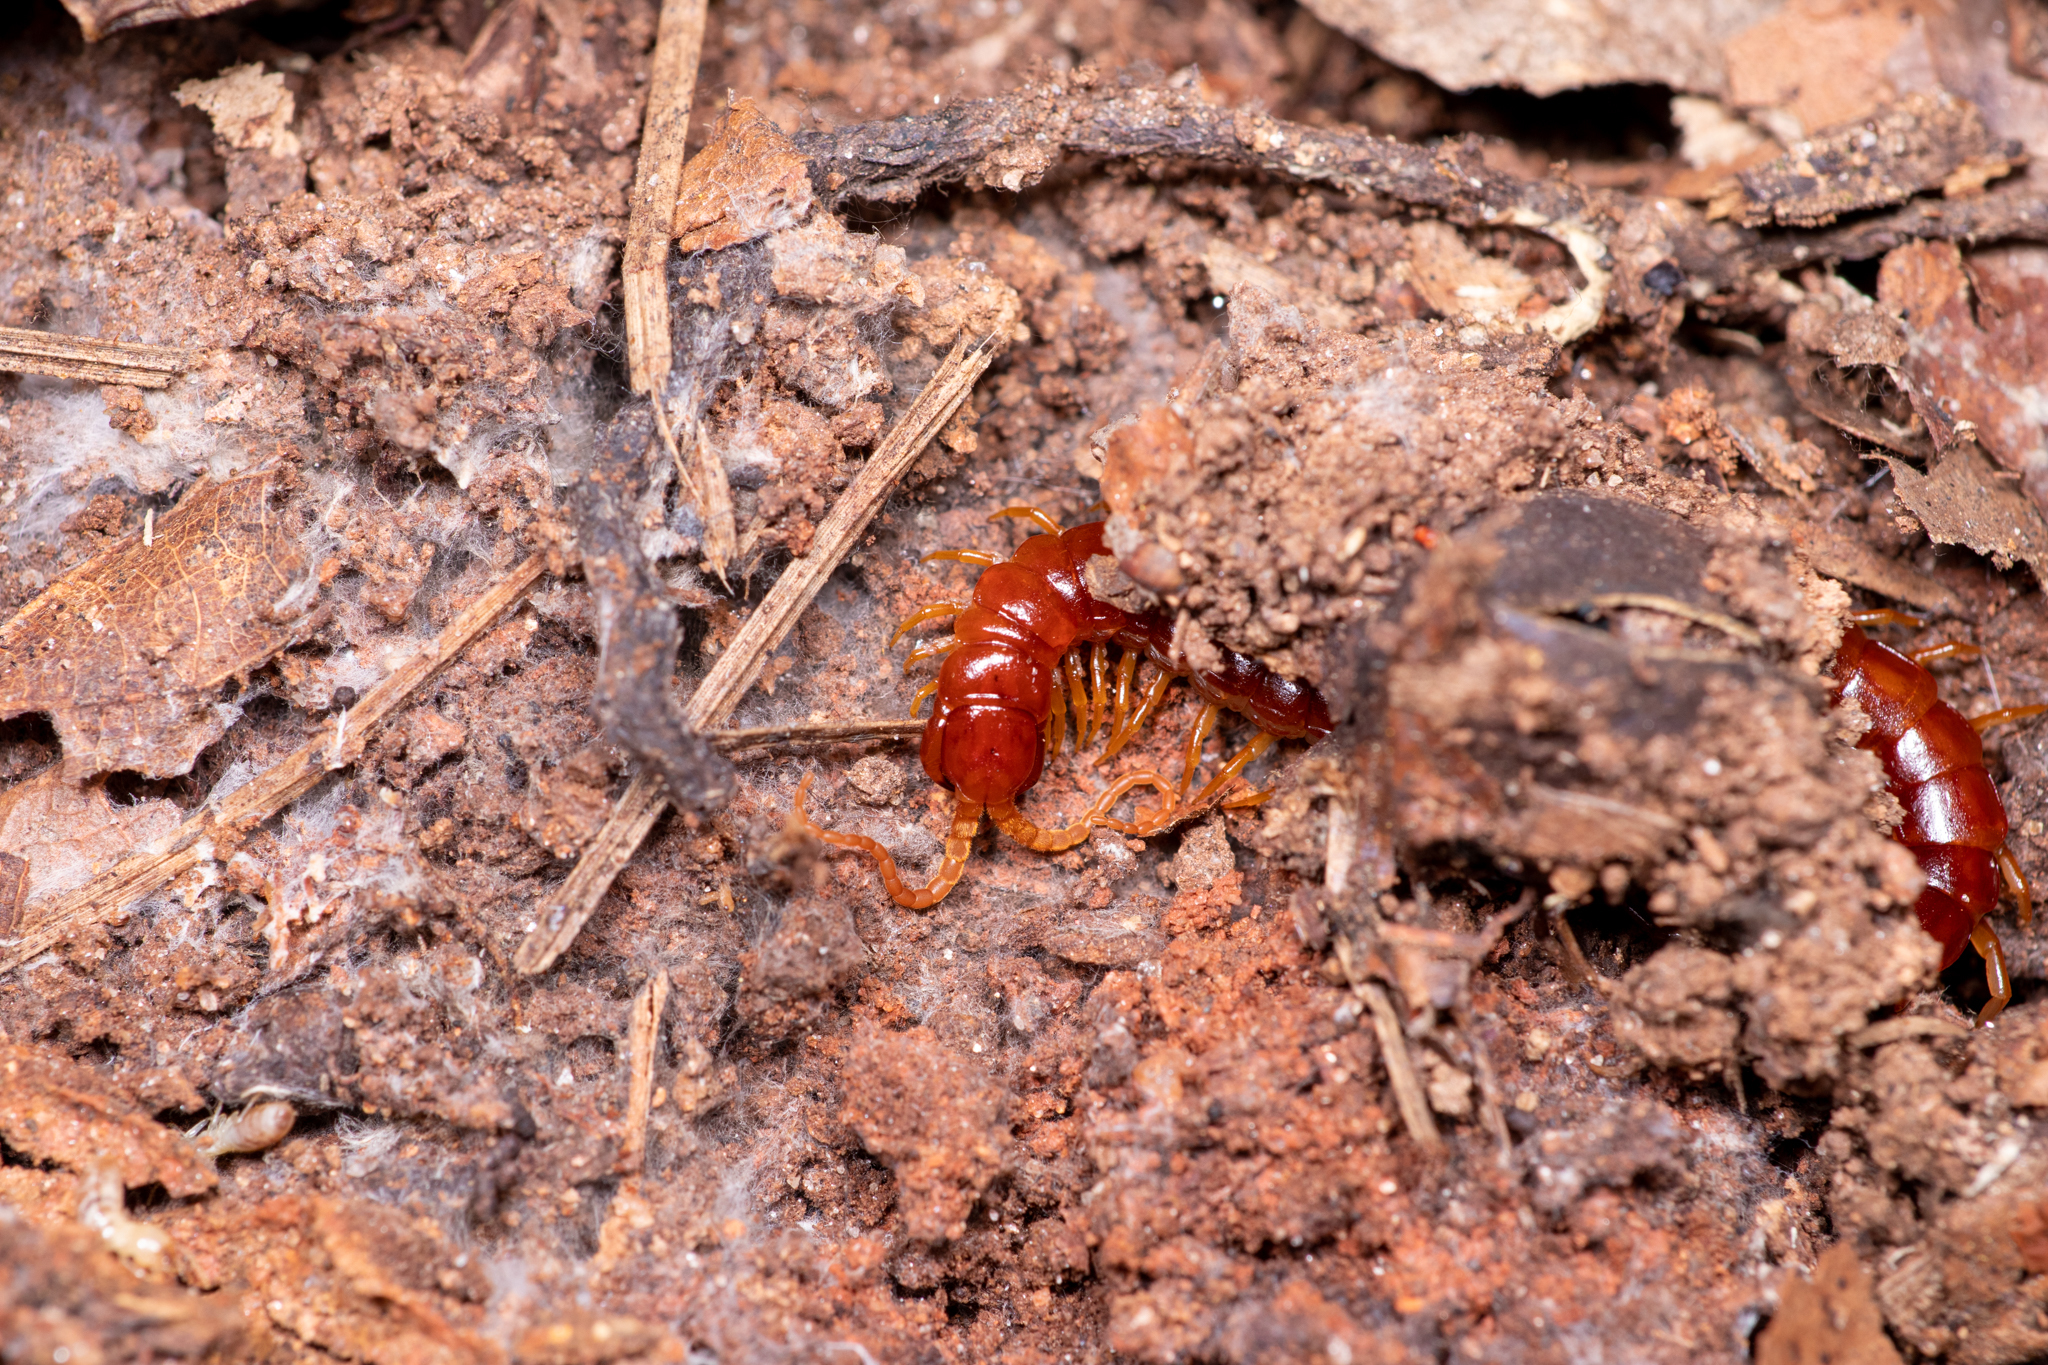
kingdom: Animalia
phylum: Arthropoda
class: Chilopoda
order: Scolopendromorpha
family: Scolopocryptopidae
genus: Scolopocryptops
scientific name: Scolopocryptops sexspinosus
